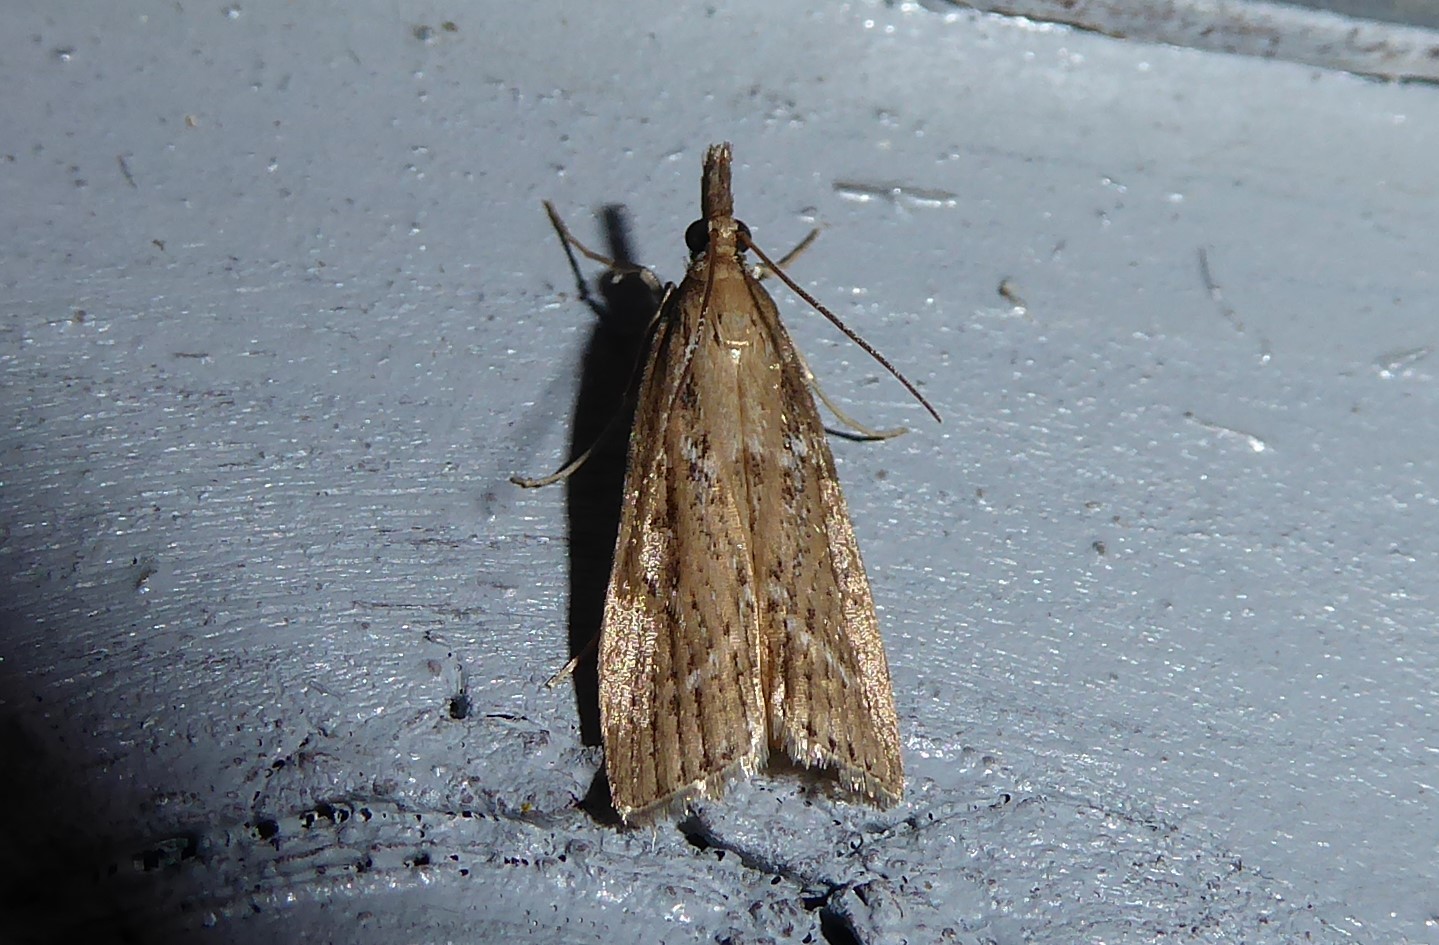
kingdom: Animalia
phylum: Arthropoda
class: Insecta
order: Lepidoptera
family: Crambidae
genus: Eudonia
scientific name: Eudonia octophora
